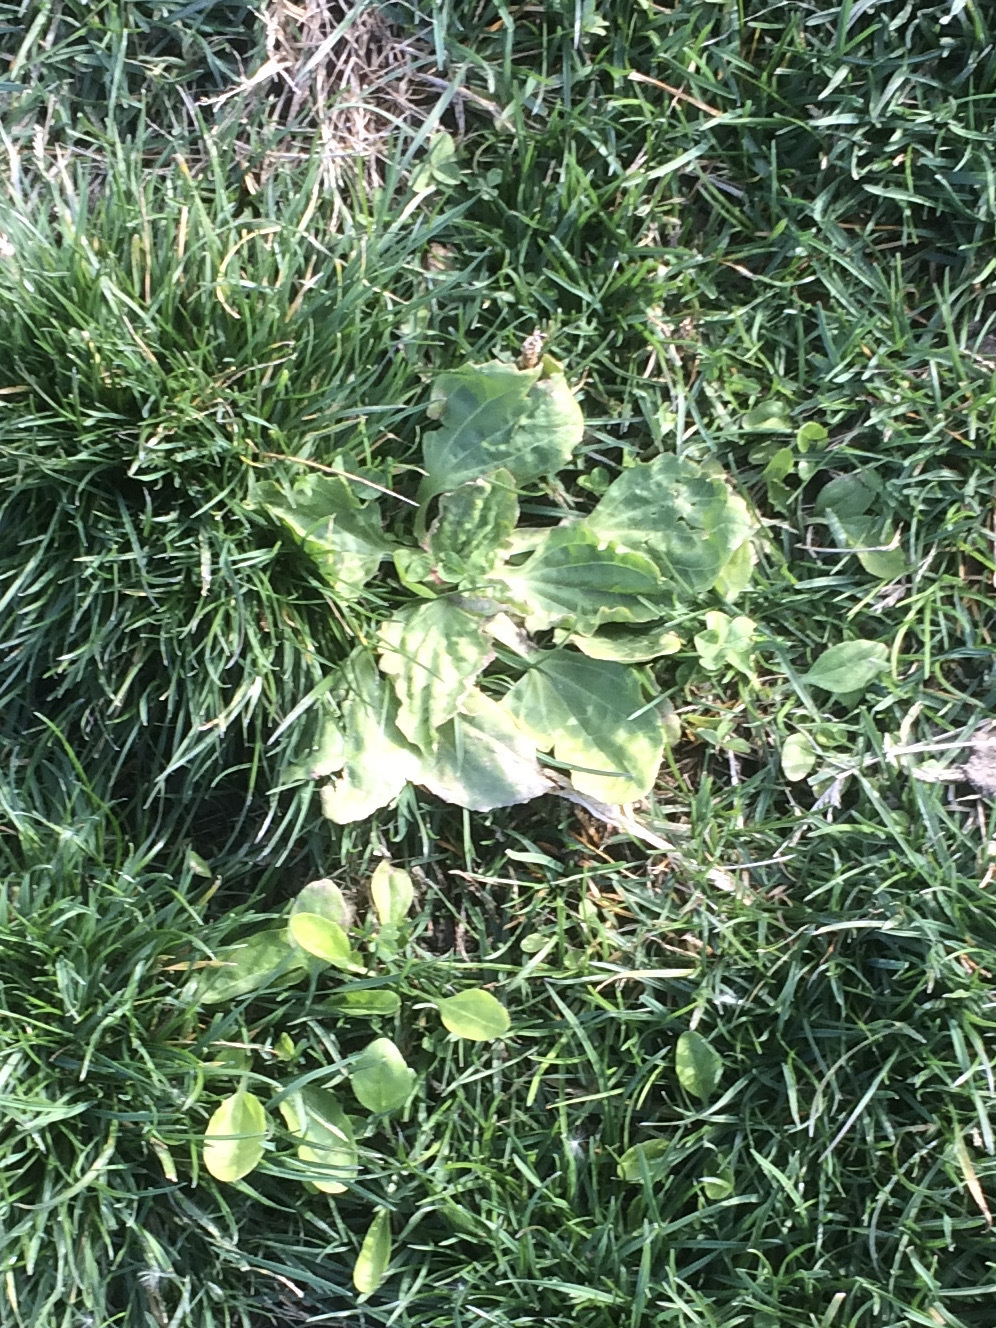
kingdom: Plantae
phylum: Tracheophyta
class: Magnoliopsida
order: Lamiales
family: Plantaginaceae
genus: Plantago
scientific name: Plantago major
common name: Common plantain
